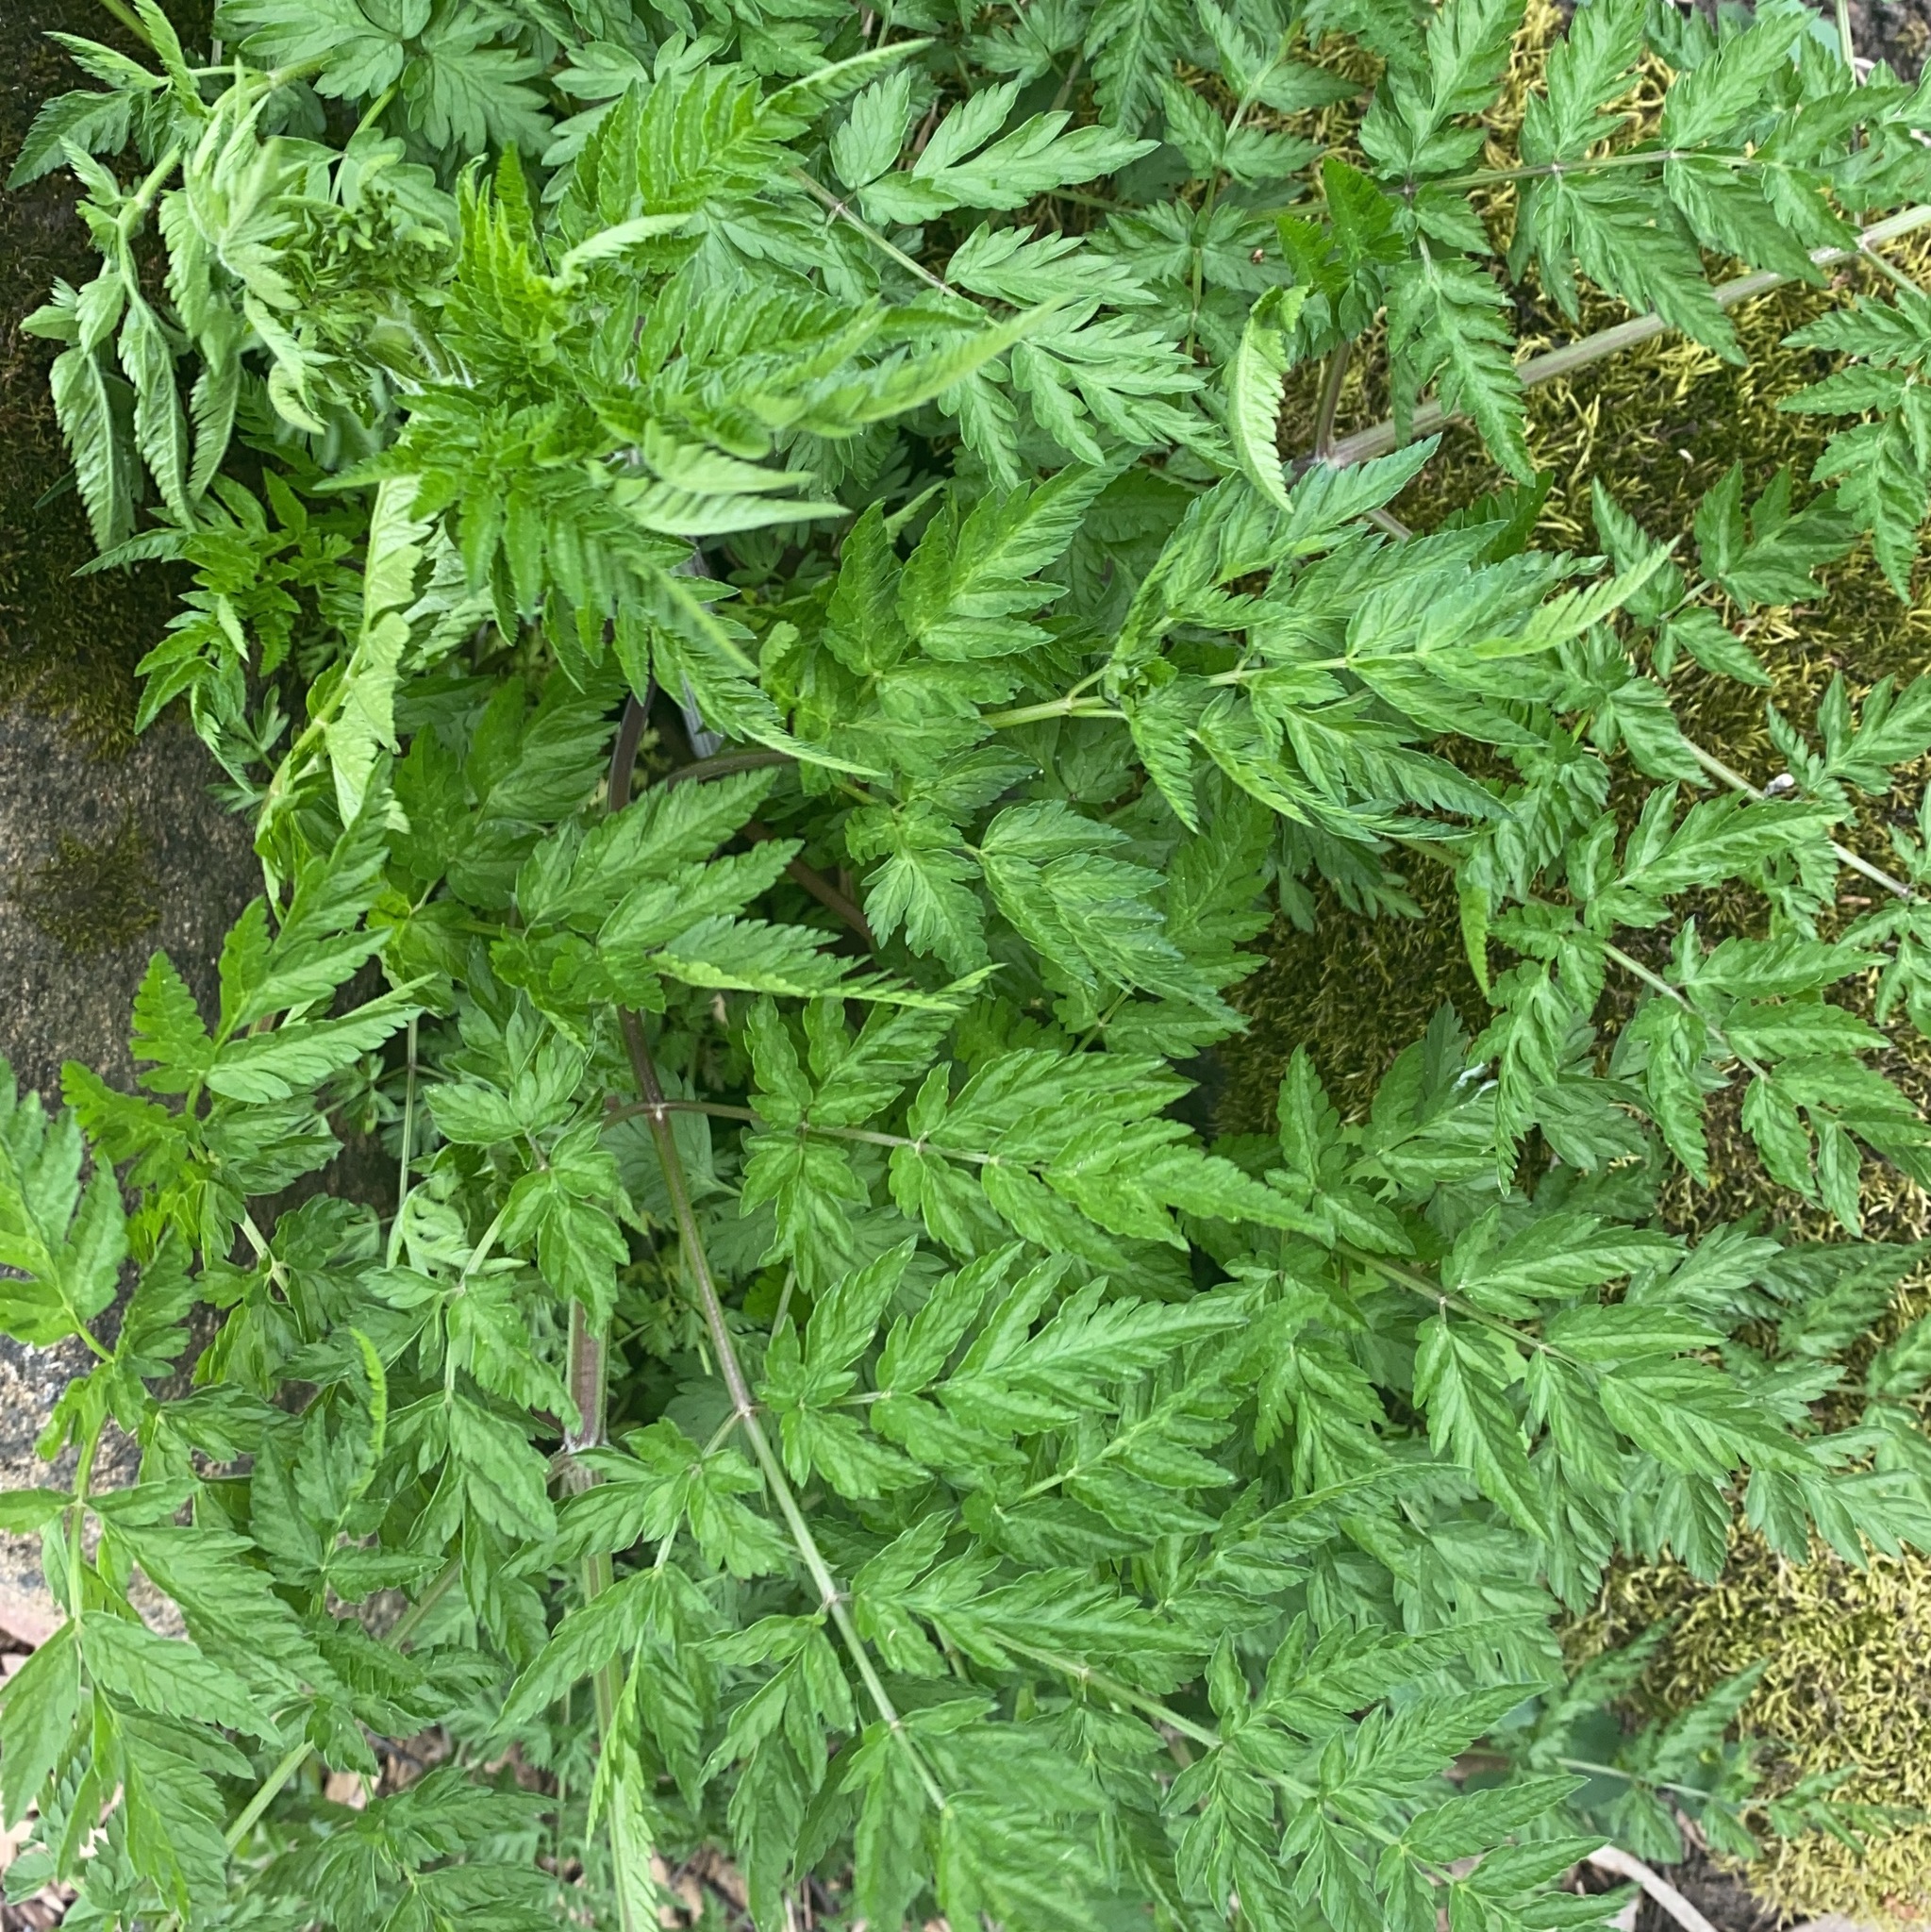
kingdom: Plantae
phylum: Tracheophyta
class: Magnoliopsida
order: Apiales
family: Apiaceae
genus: Anthriscus
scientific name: Anthriscus sylvestris
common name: Cow parsley
